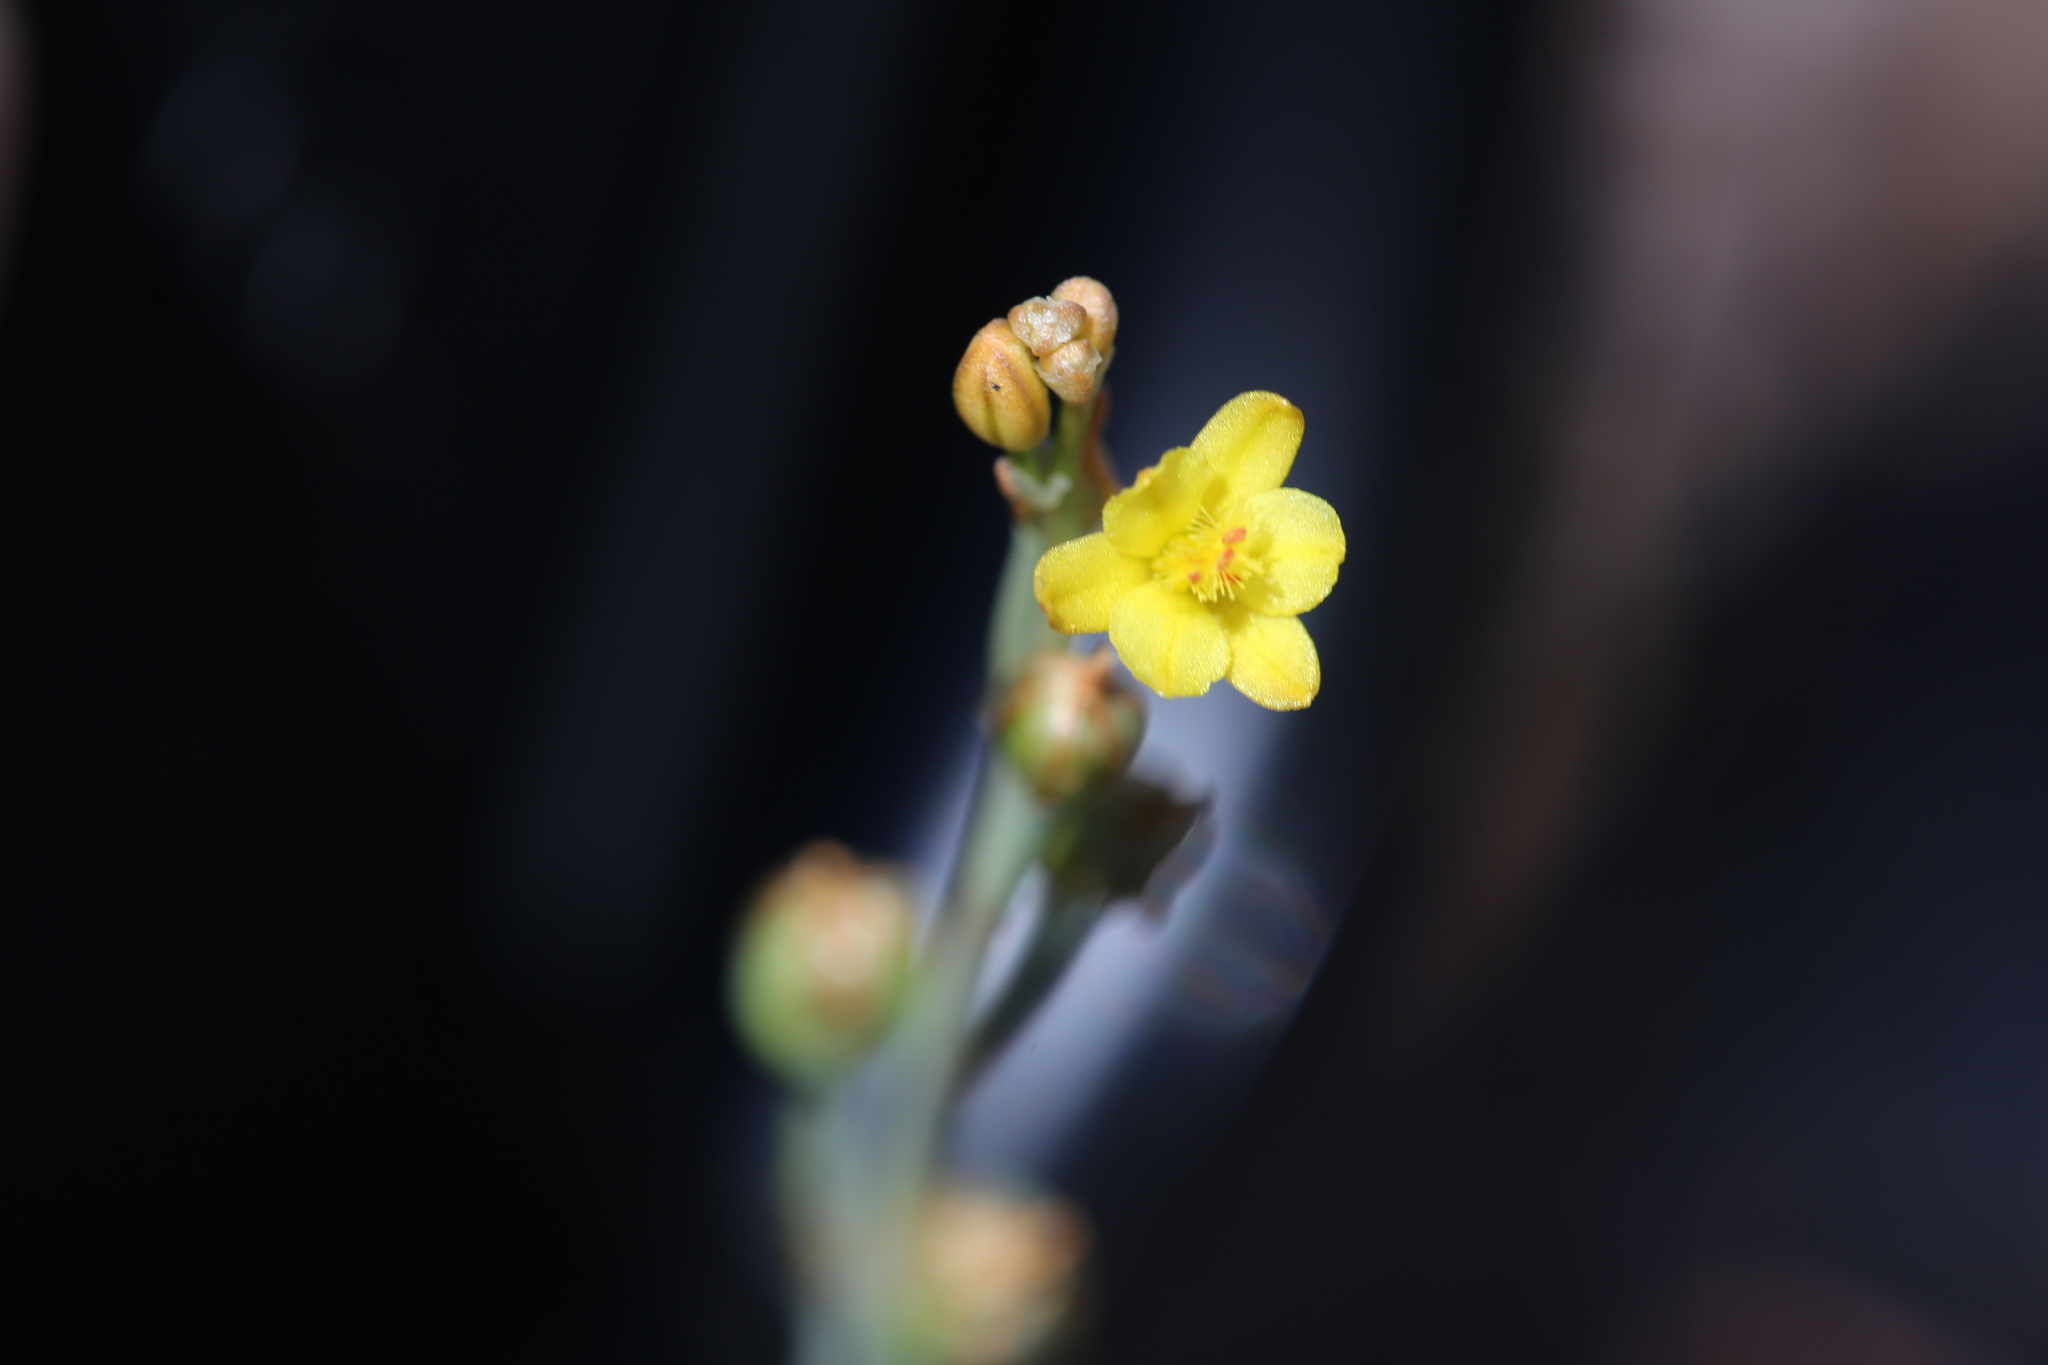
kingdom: Plantae
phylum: Tracheophyta
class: Liliopsida
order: Asparagales
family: Asphodelaceae
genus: Bulbine
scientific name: Bulbine semibarbata
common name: Leek lily
